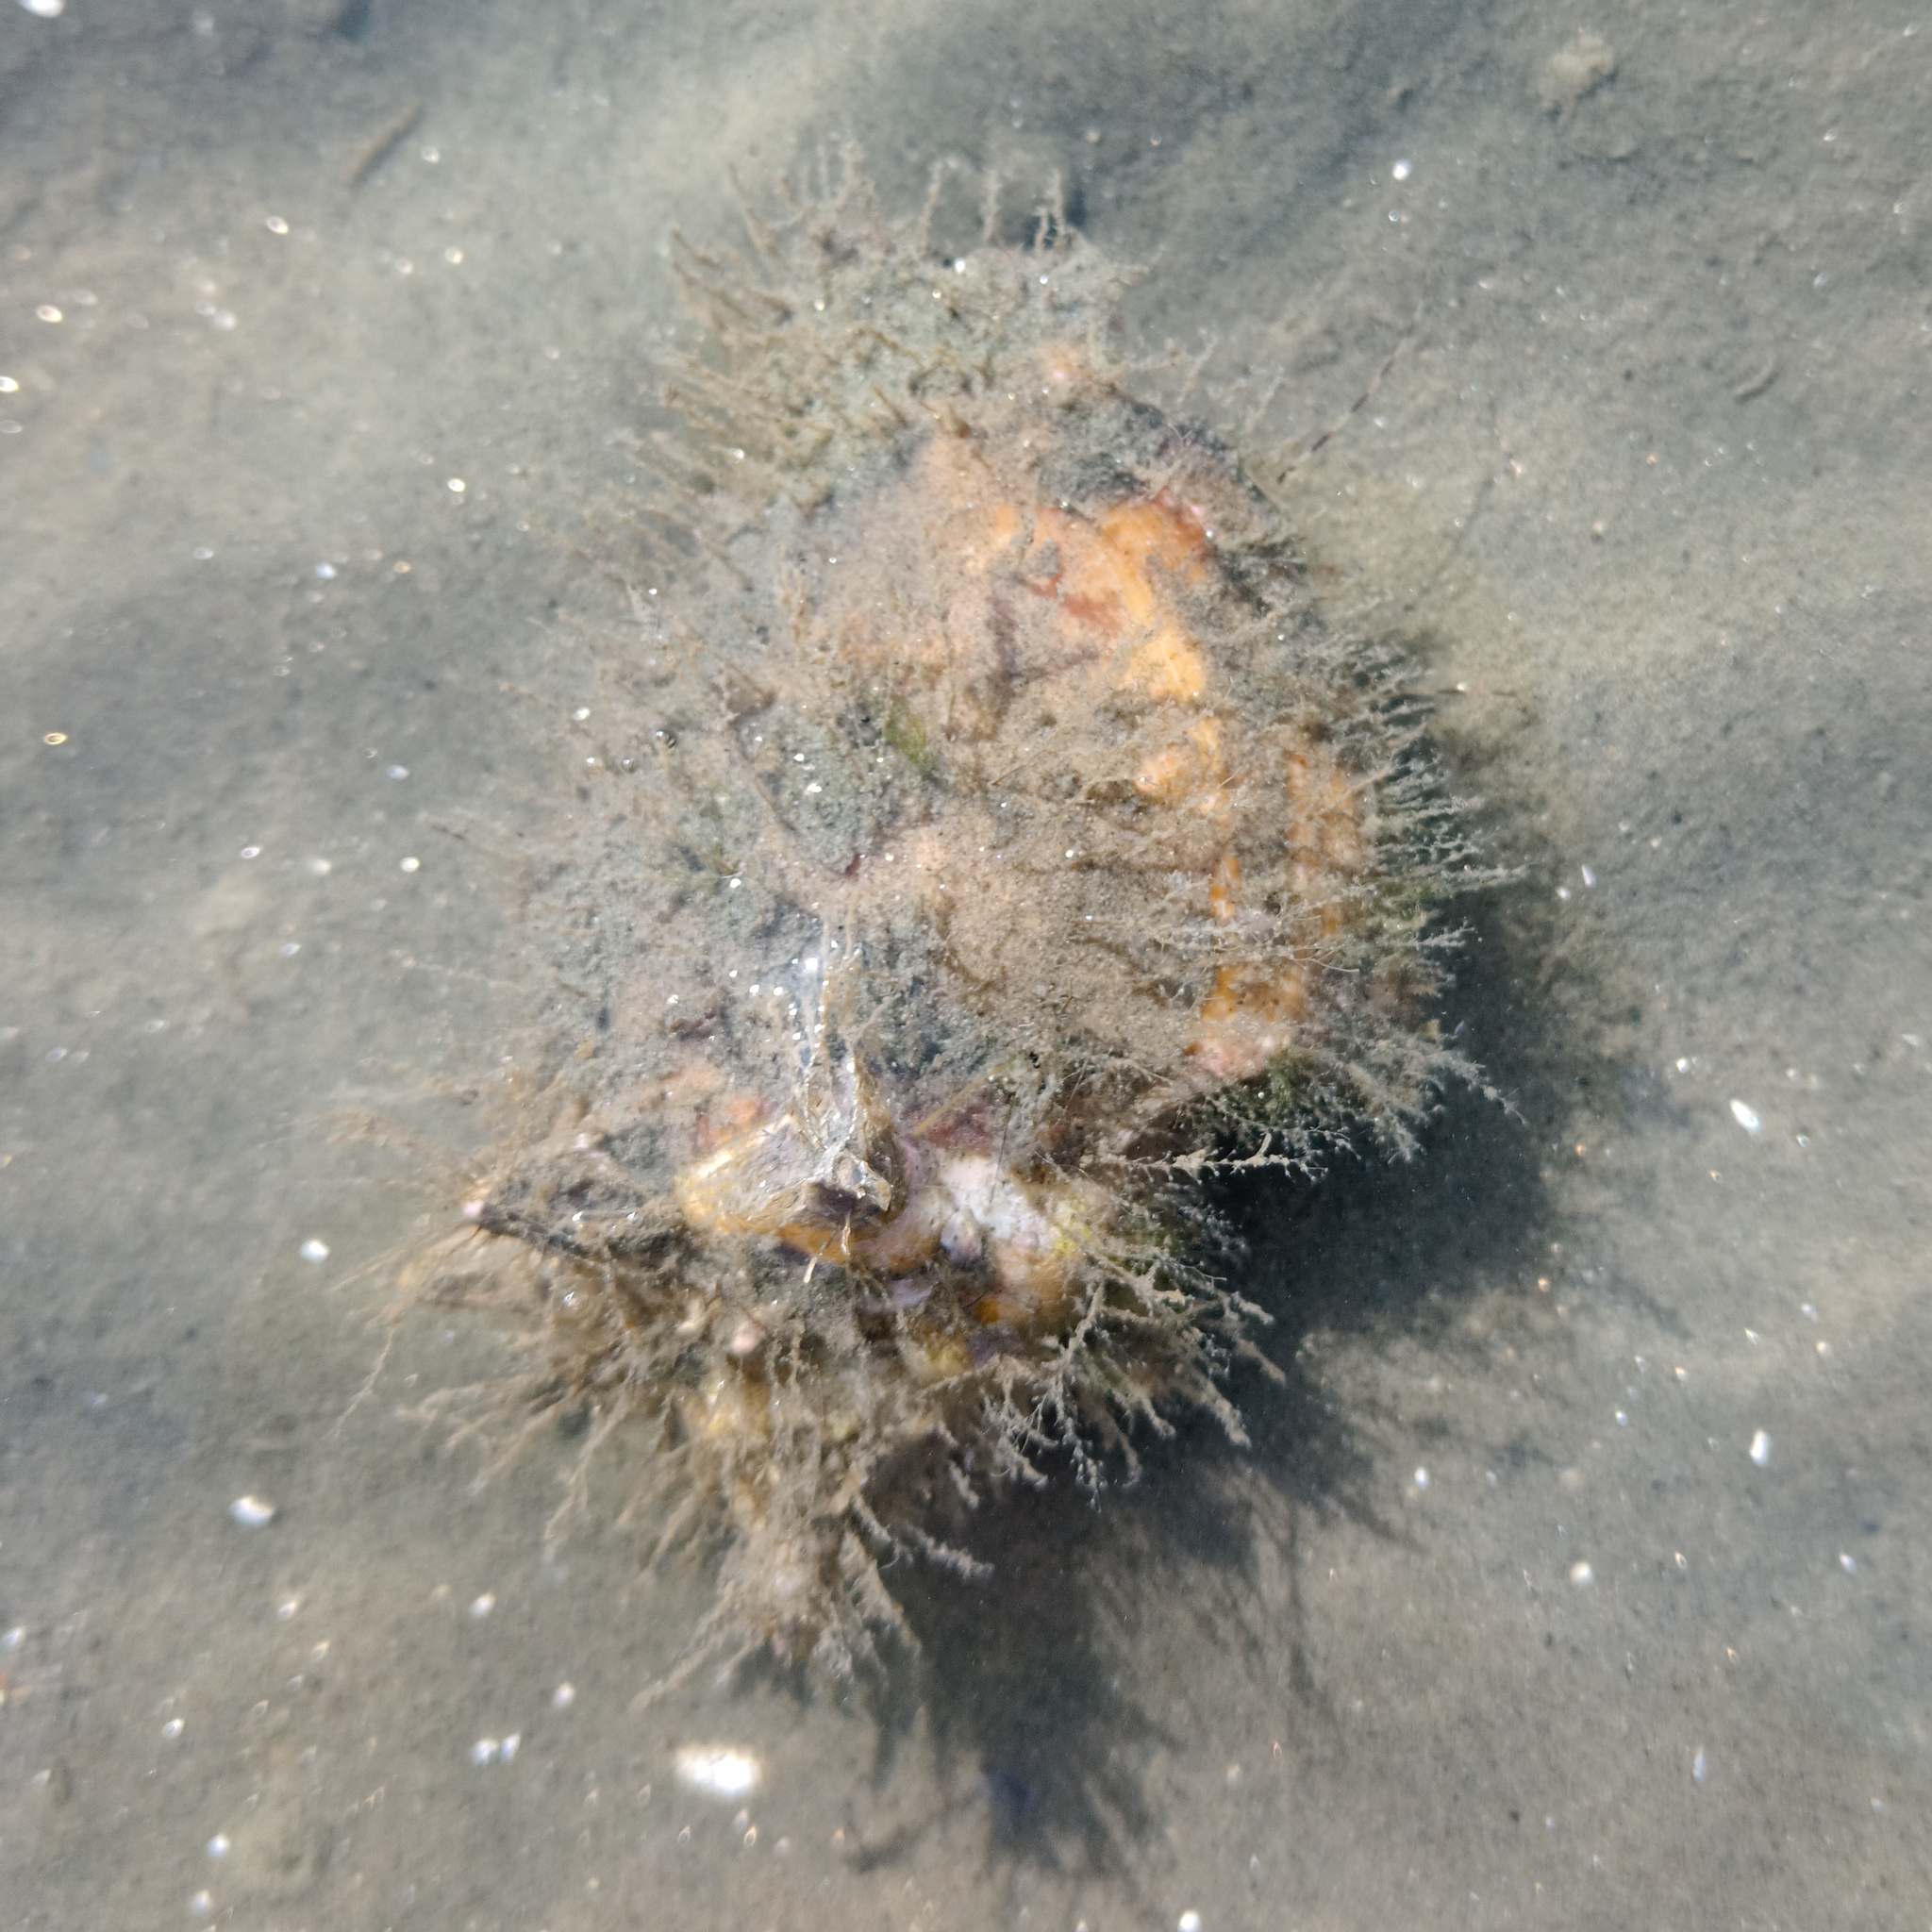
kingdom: Animalia
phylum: Mollusca
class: Gastropoda
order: Littorinimorpha
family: Strombidae
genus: Strombus
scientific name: Strombus pugilis
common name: West indian fighting conch
